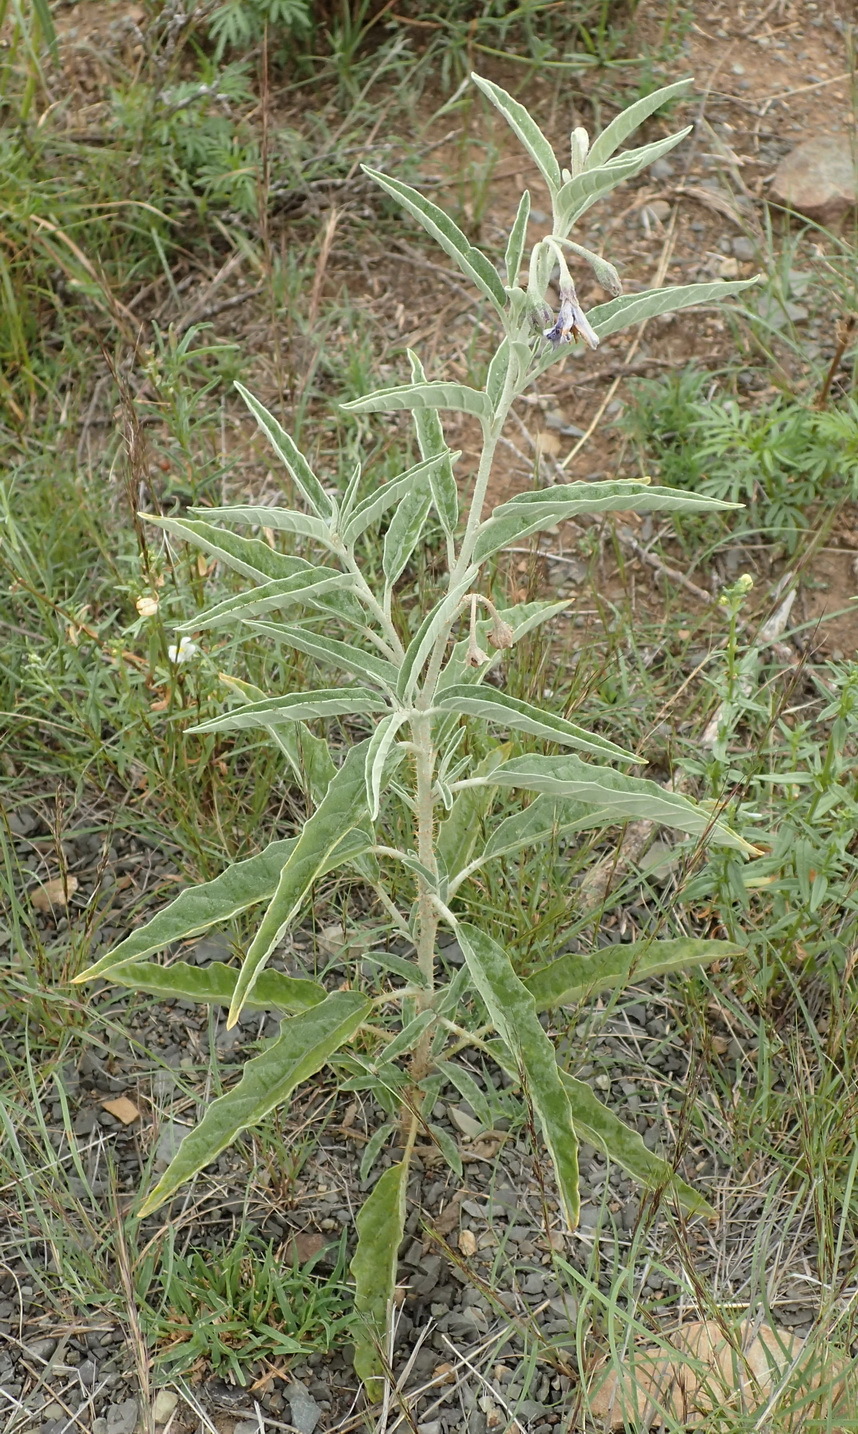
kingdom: Plantae
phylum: Tracheophyta
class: Magnoliopsida
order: Solanales
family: Solanaceae
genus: Solanum
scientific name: Solanum elaeagnifolium
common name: Silverleaf nightshade
